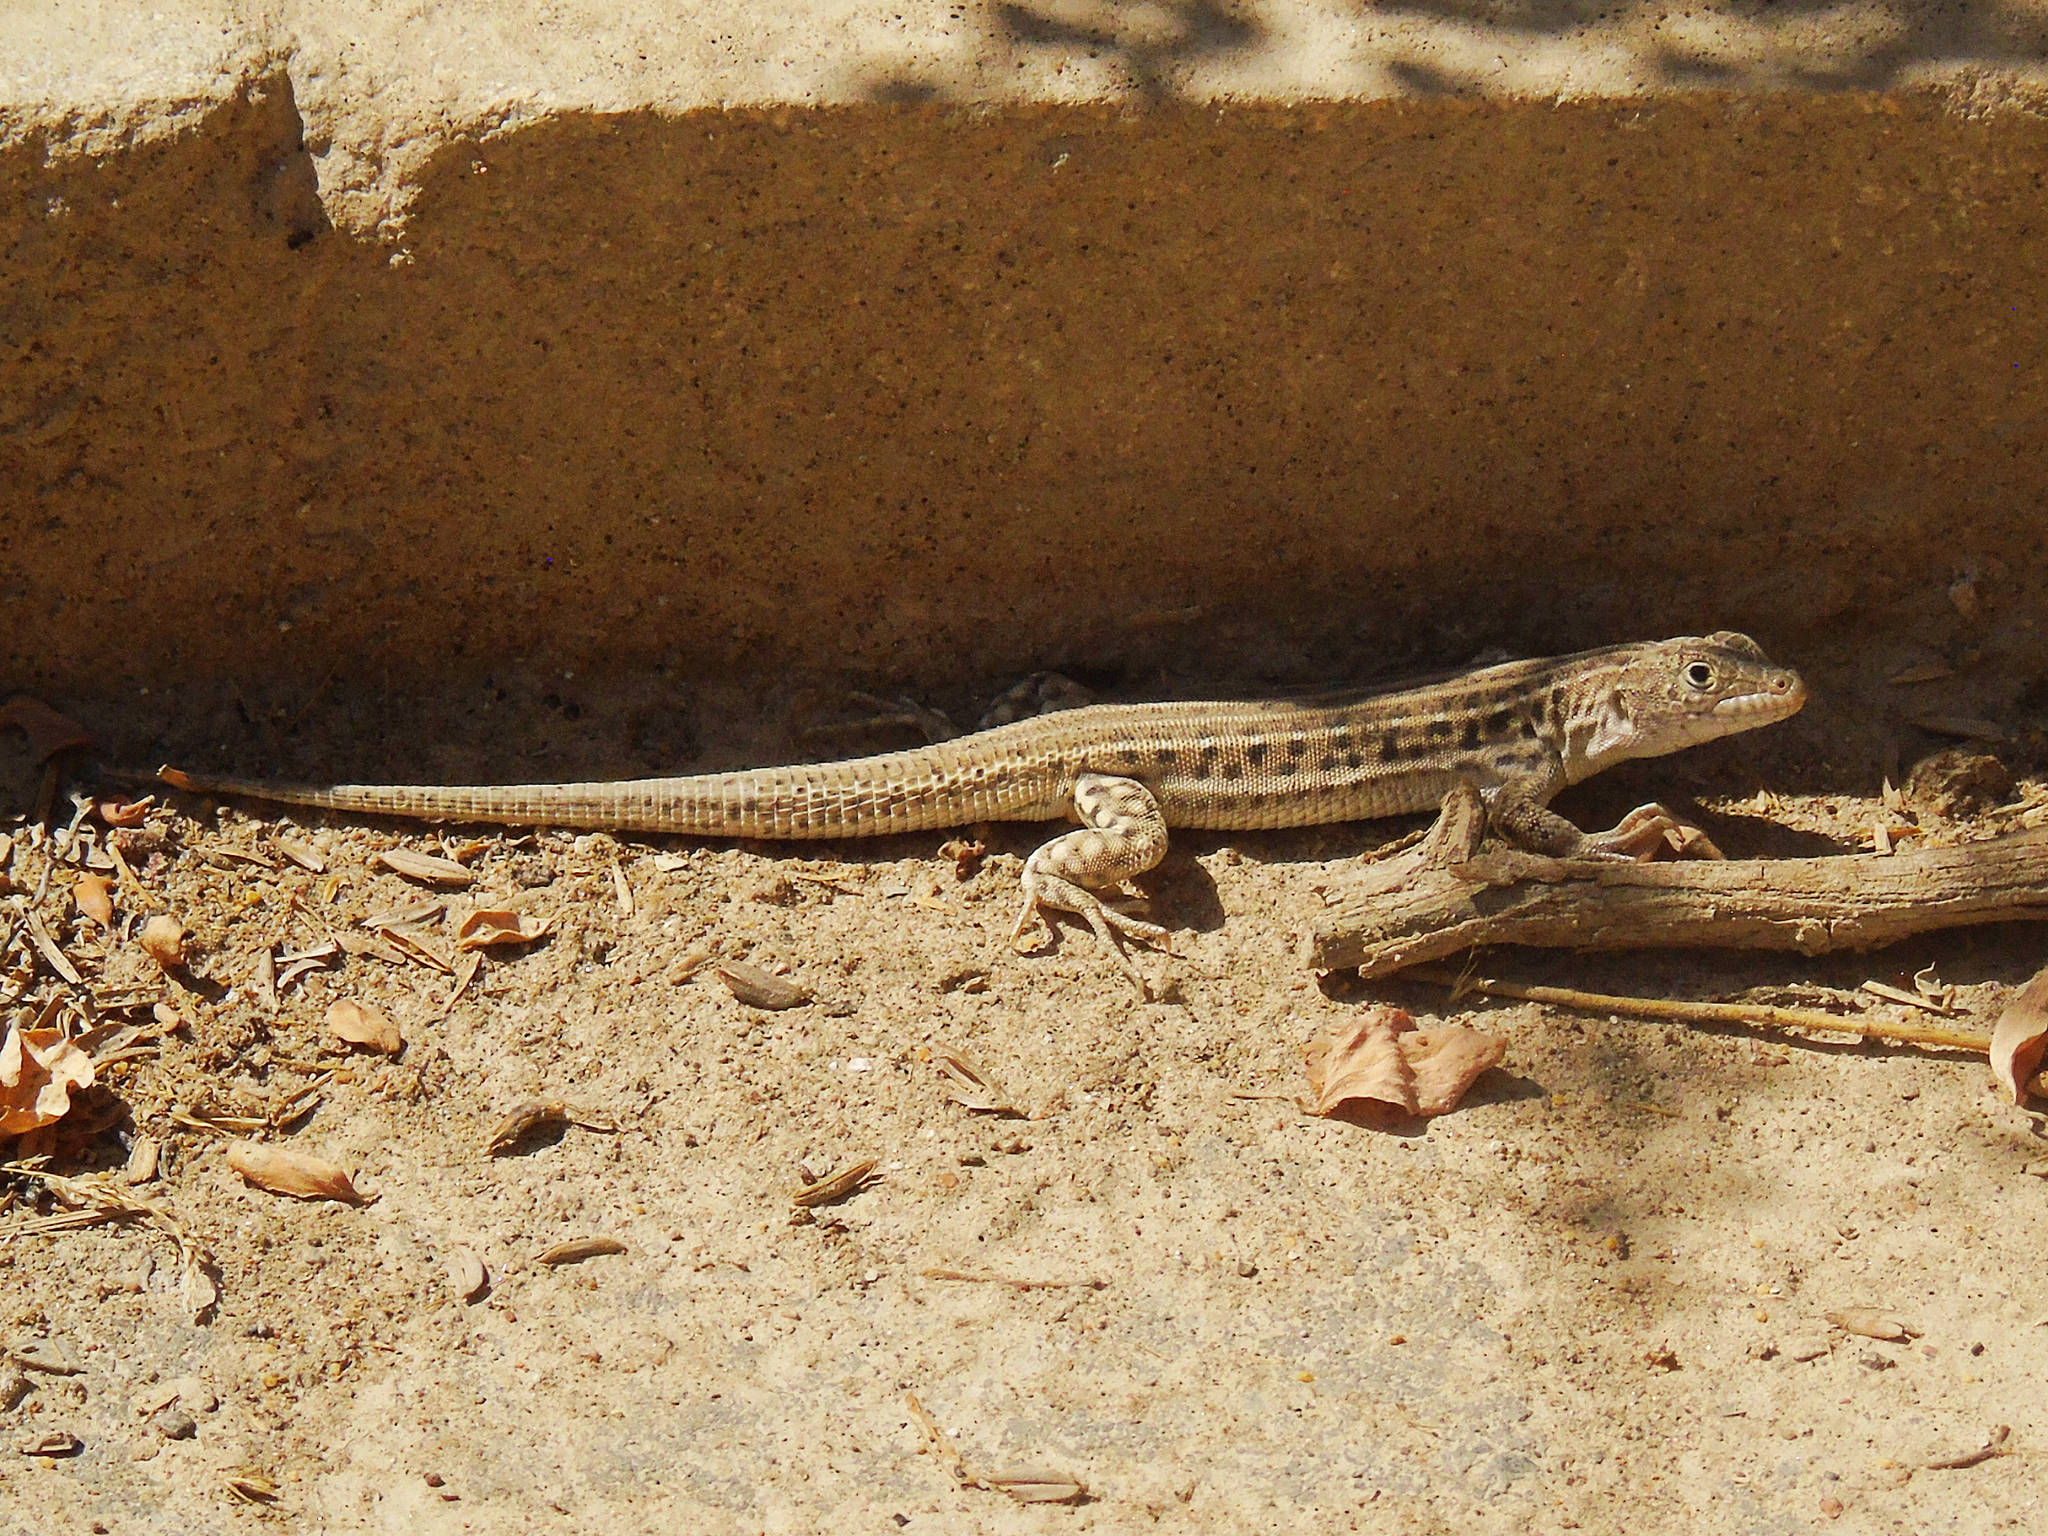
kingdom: Animalia
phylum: Chordata
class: Squamata
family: Lacertidae
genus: Eremias
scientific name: Eremias velox
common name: Central asian racerunner
